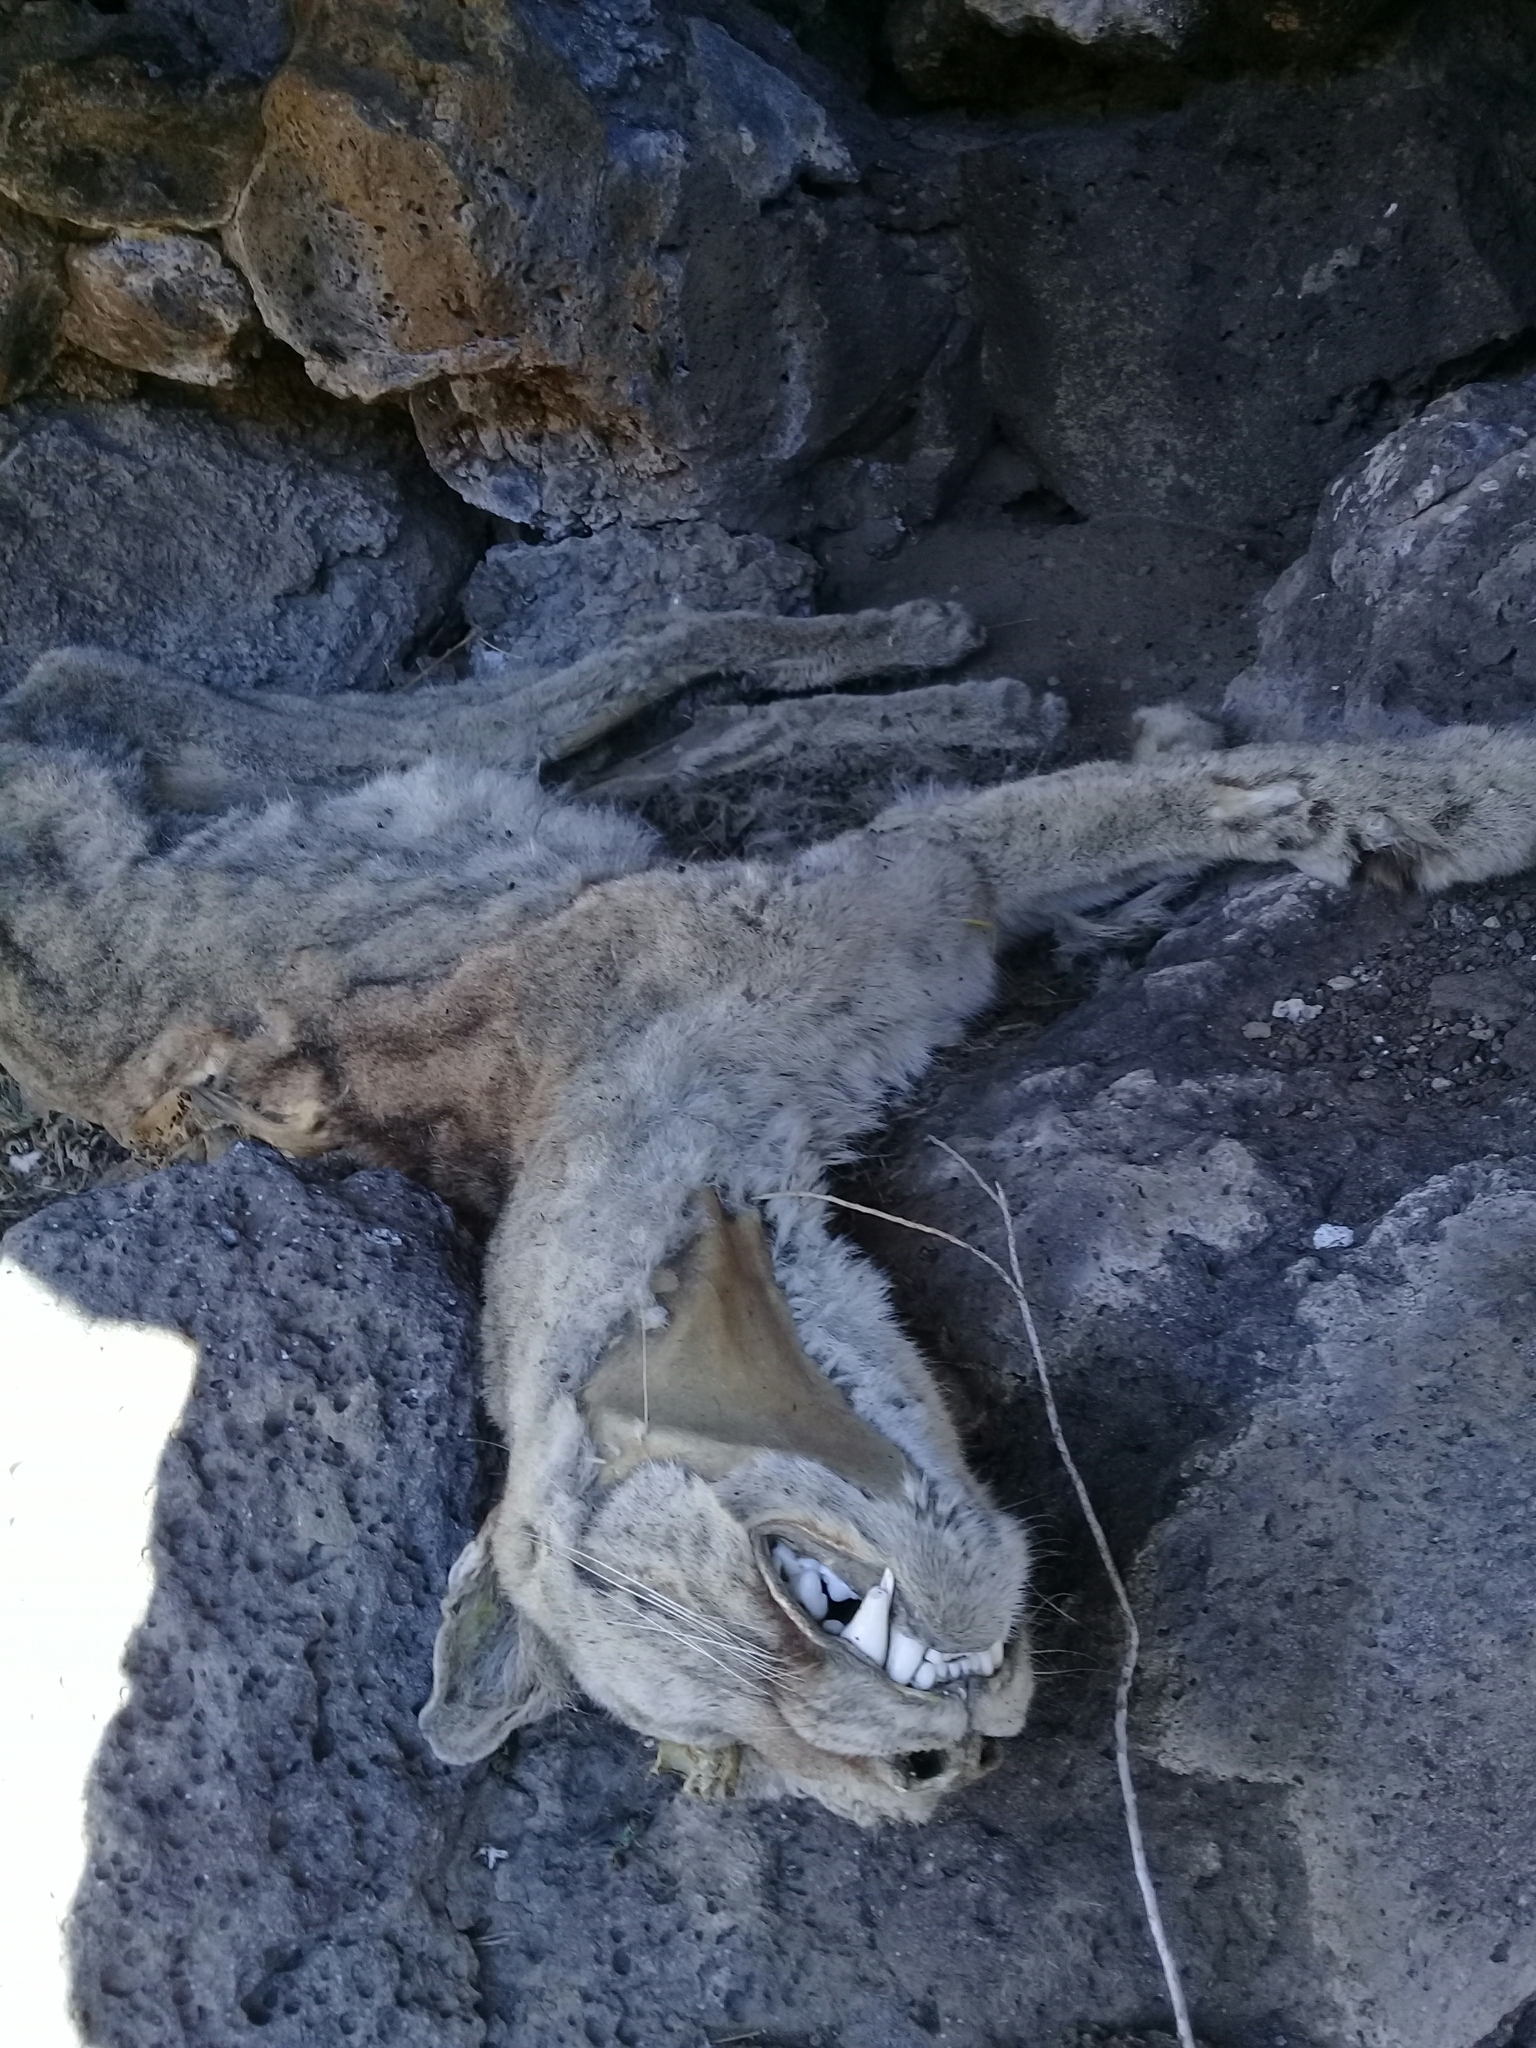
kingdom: Animalia
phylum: Chordata
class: Mammalia
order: Carnivora
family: Felidae
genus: Puma
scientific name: Puma concolor
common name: Puma
